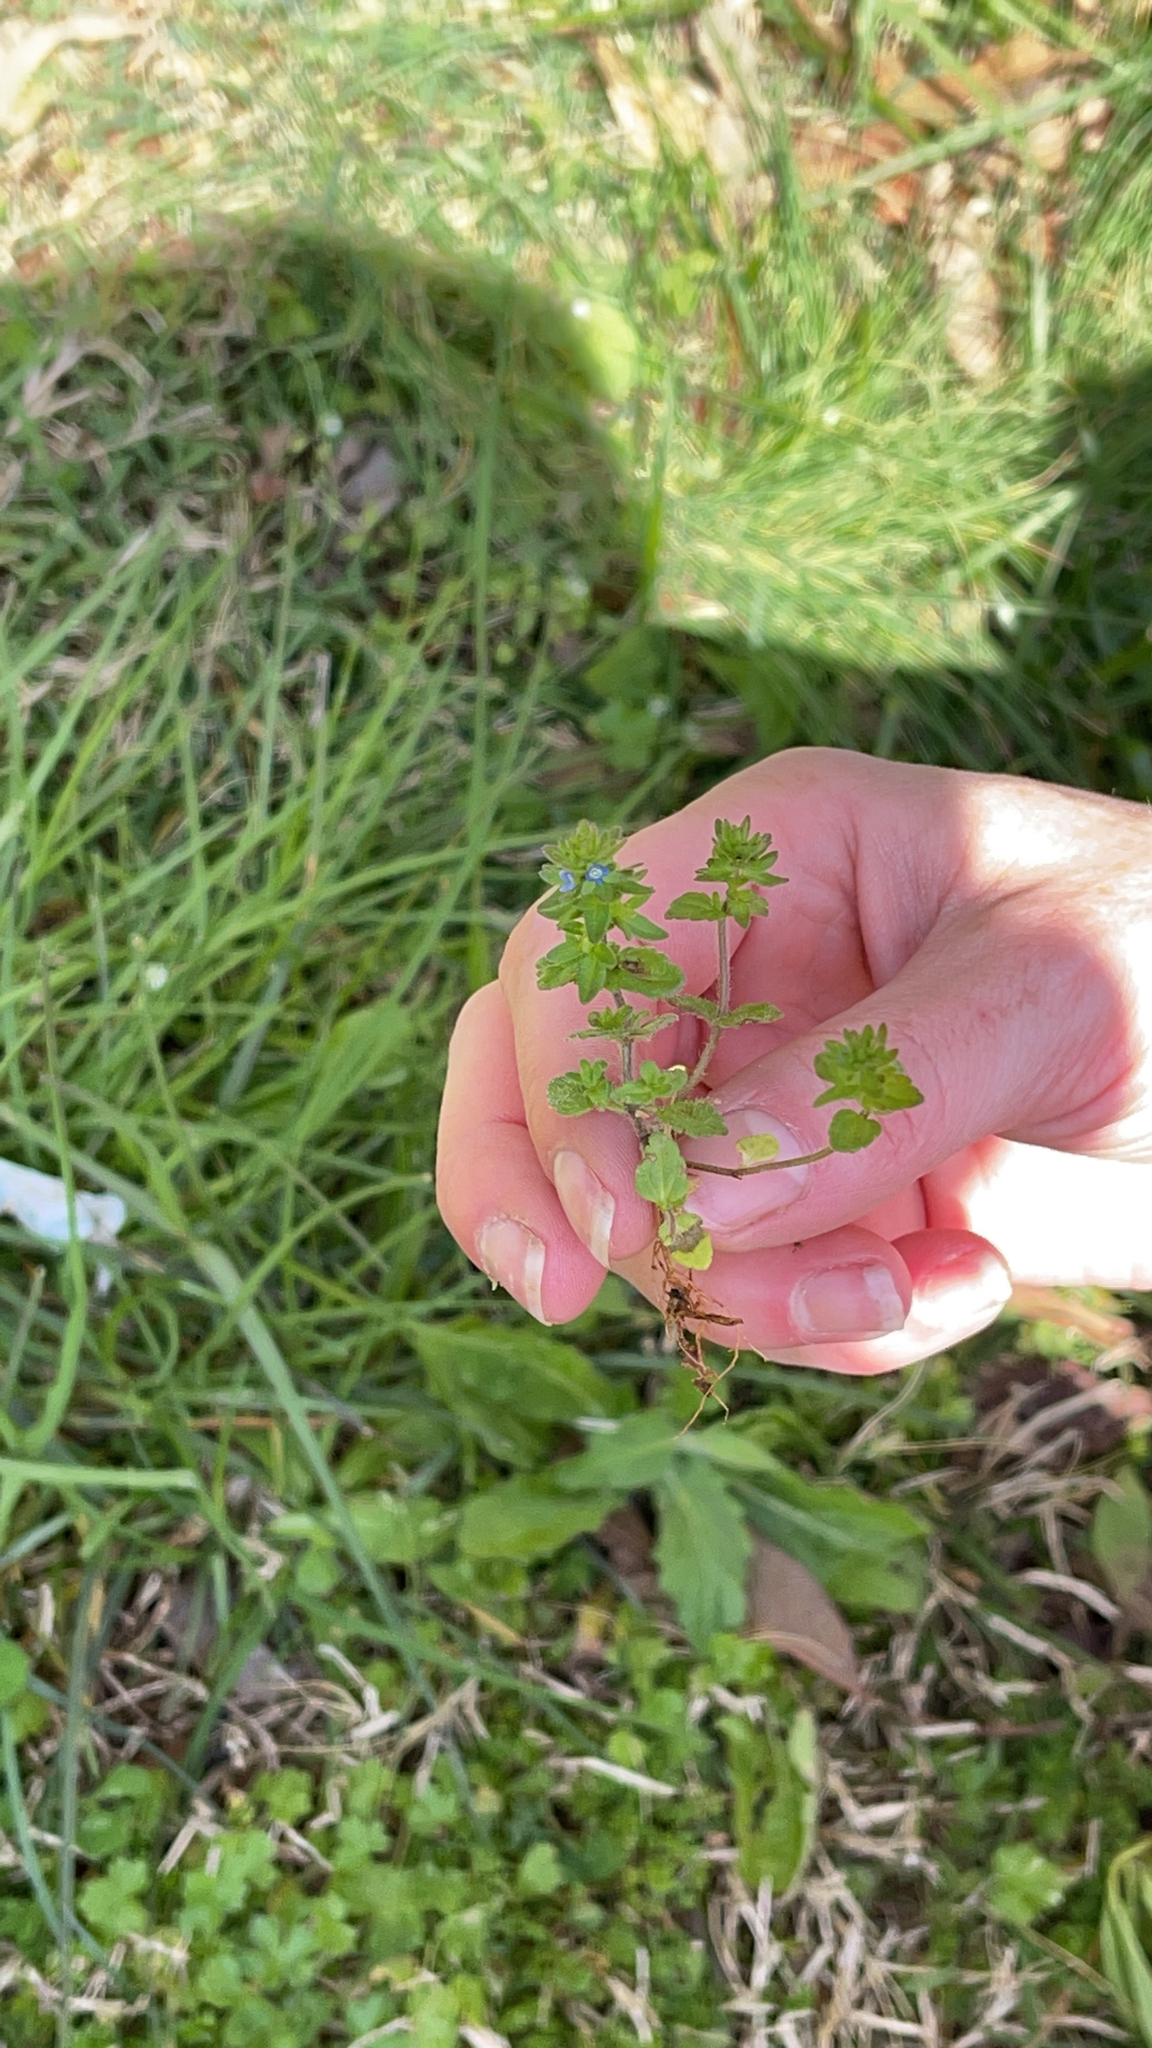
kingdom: Plantae
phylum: Tracheophyta
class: Magnoliopsida
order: Lamiales
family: Plantaginaceae
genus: Veronica
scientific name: Veronica arvensis
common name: Corn speedwell
